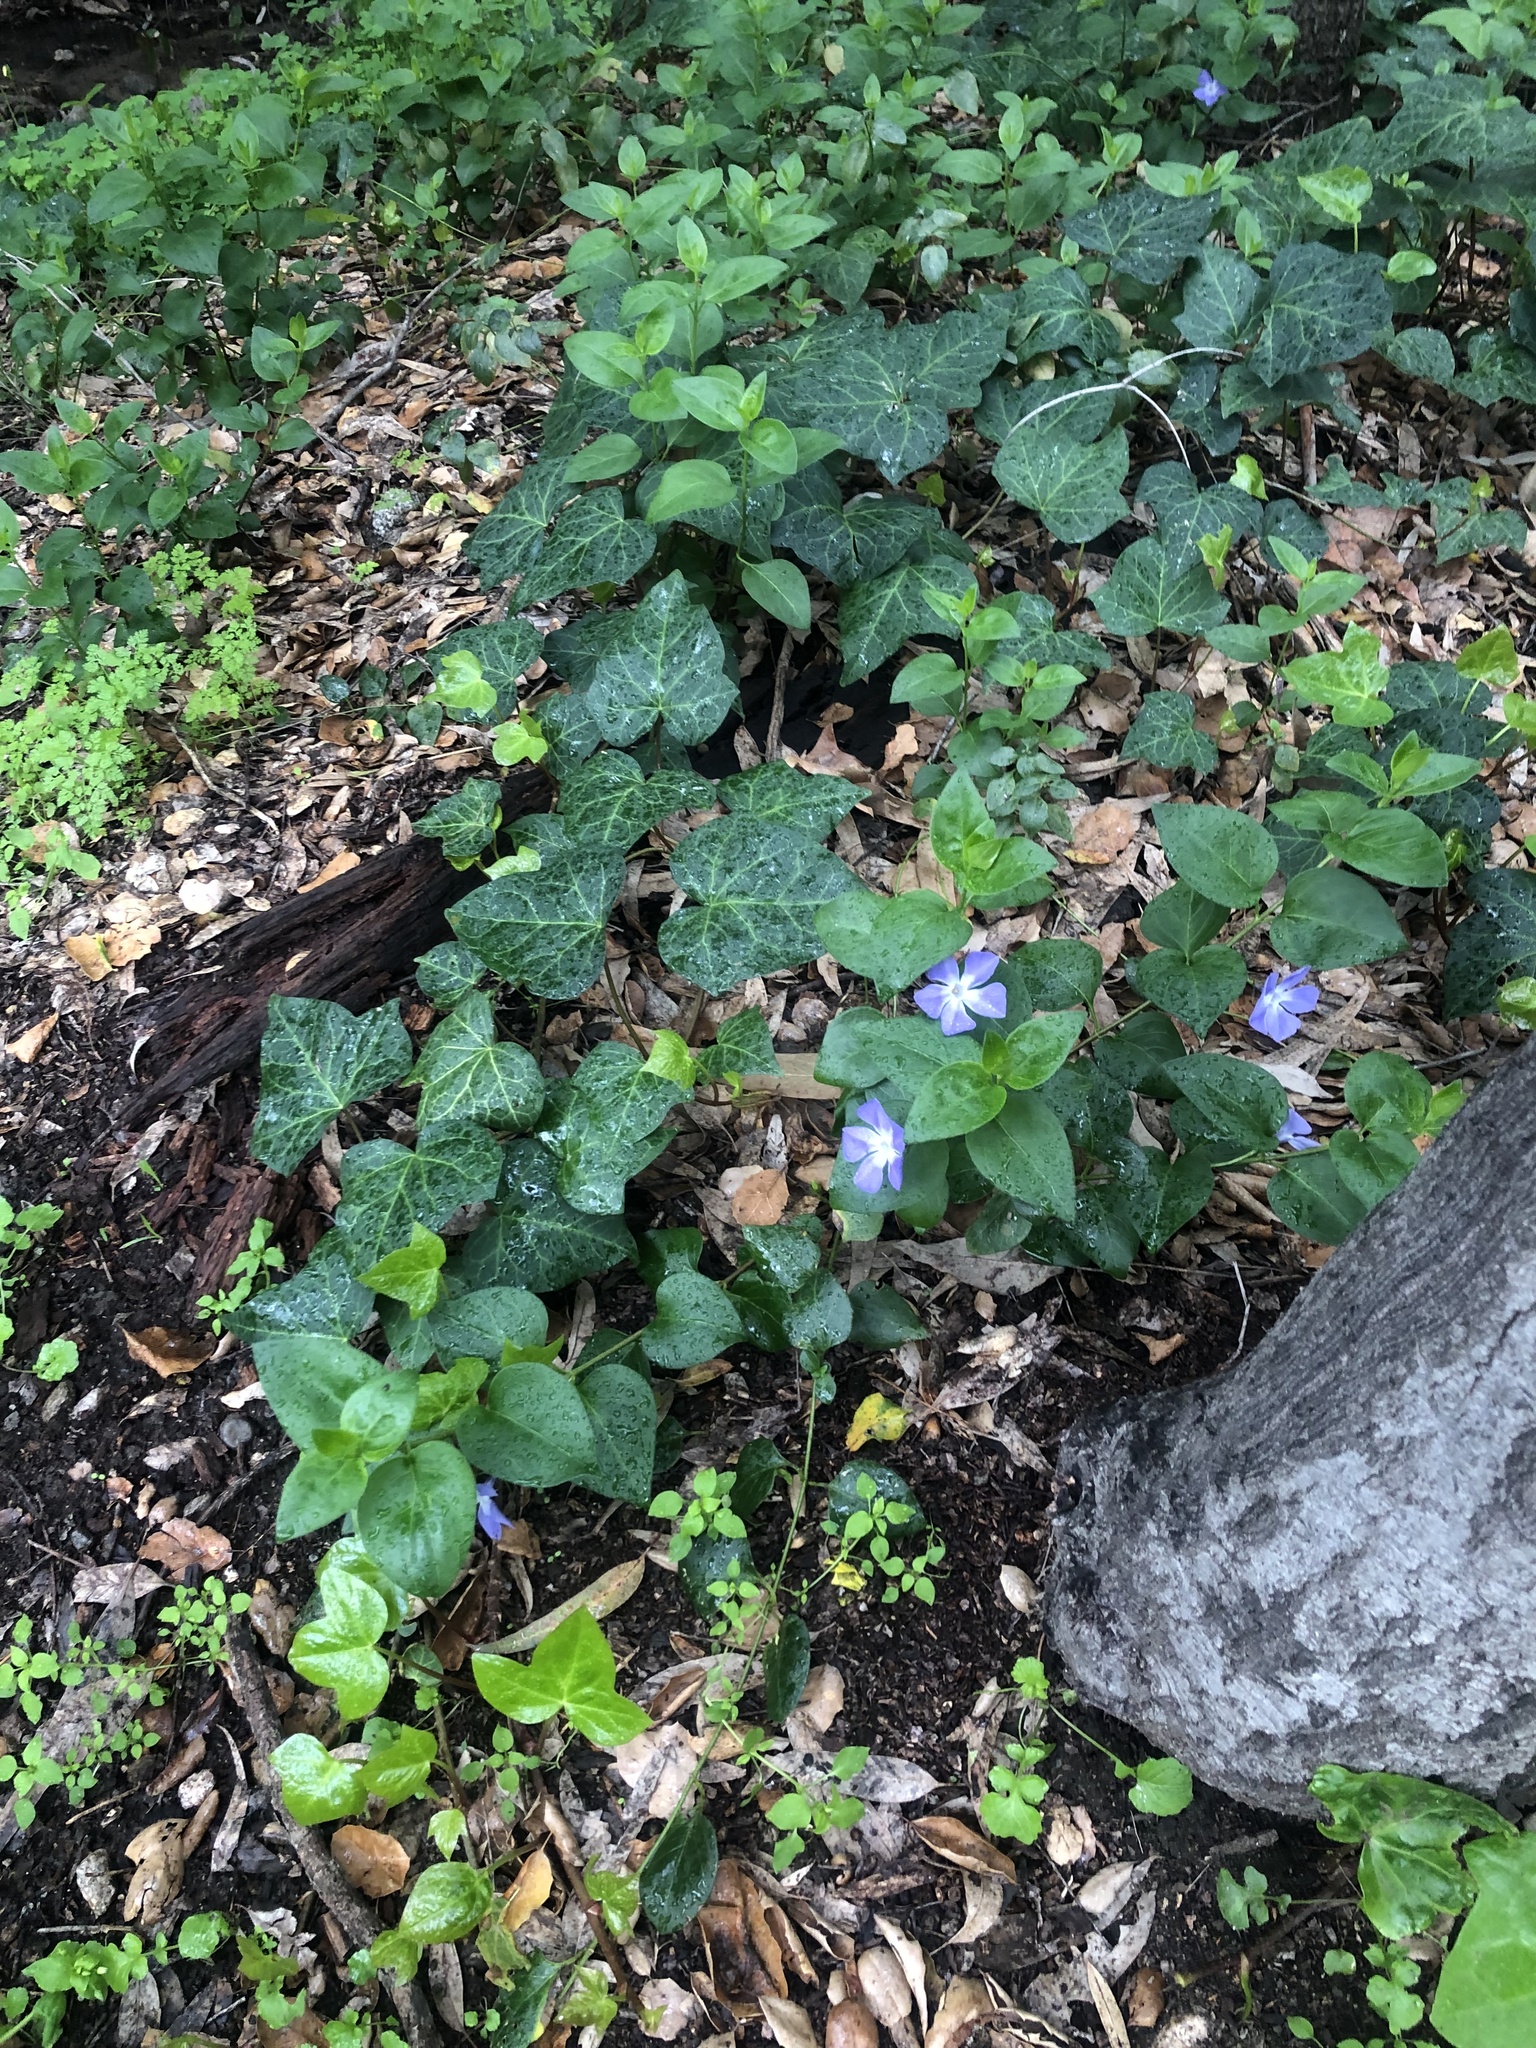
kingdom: Plantae
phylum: Tracheophyta
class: Magnoliopsida
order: Gentianales
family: Apocynaceae
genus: Vinca
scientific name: Vinca major
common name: Greater periwinkle
